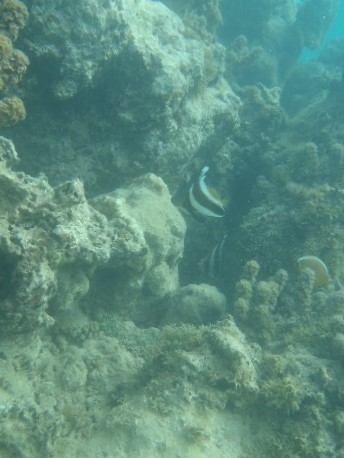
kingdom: Animalia
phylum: Chordata
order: Perciformes
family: Chaetodontidae
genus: Heniochus
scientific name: Heniochus chrysostomus
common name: Horned bannerfish
